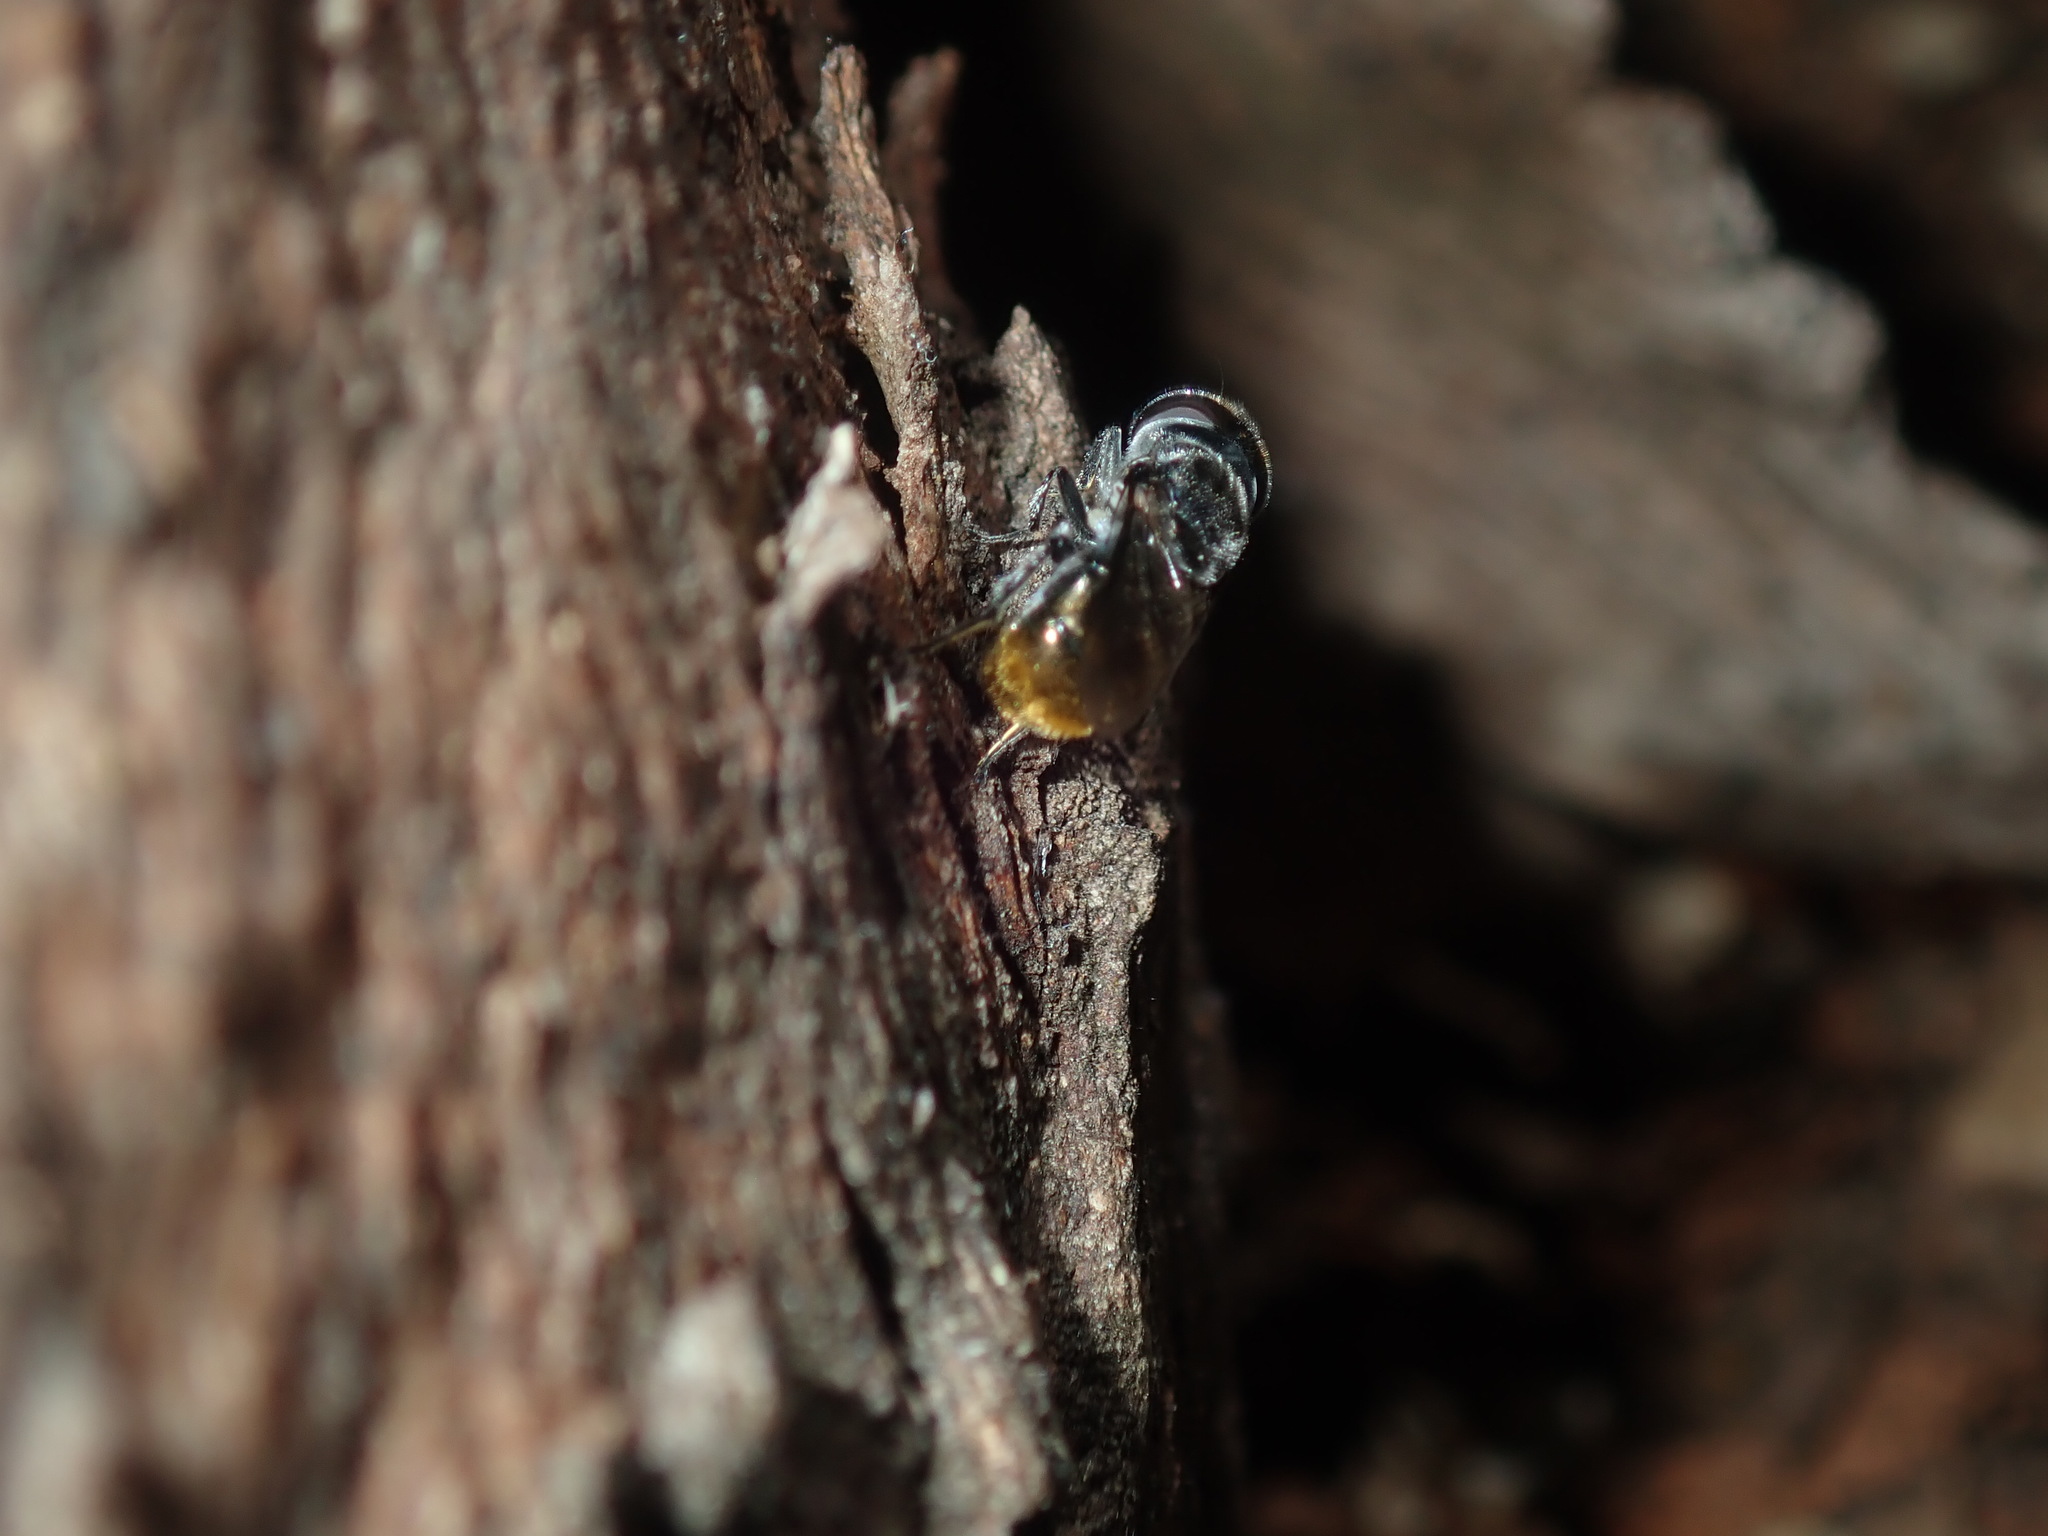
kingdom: Animalia
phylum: Arthropoda
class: Insecta
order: Diptera
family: Syrphidae
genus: Psilota
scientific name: Psilota auricauda
